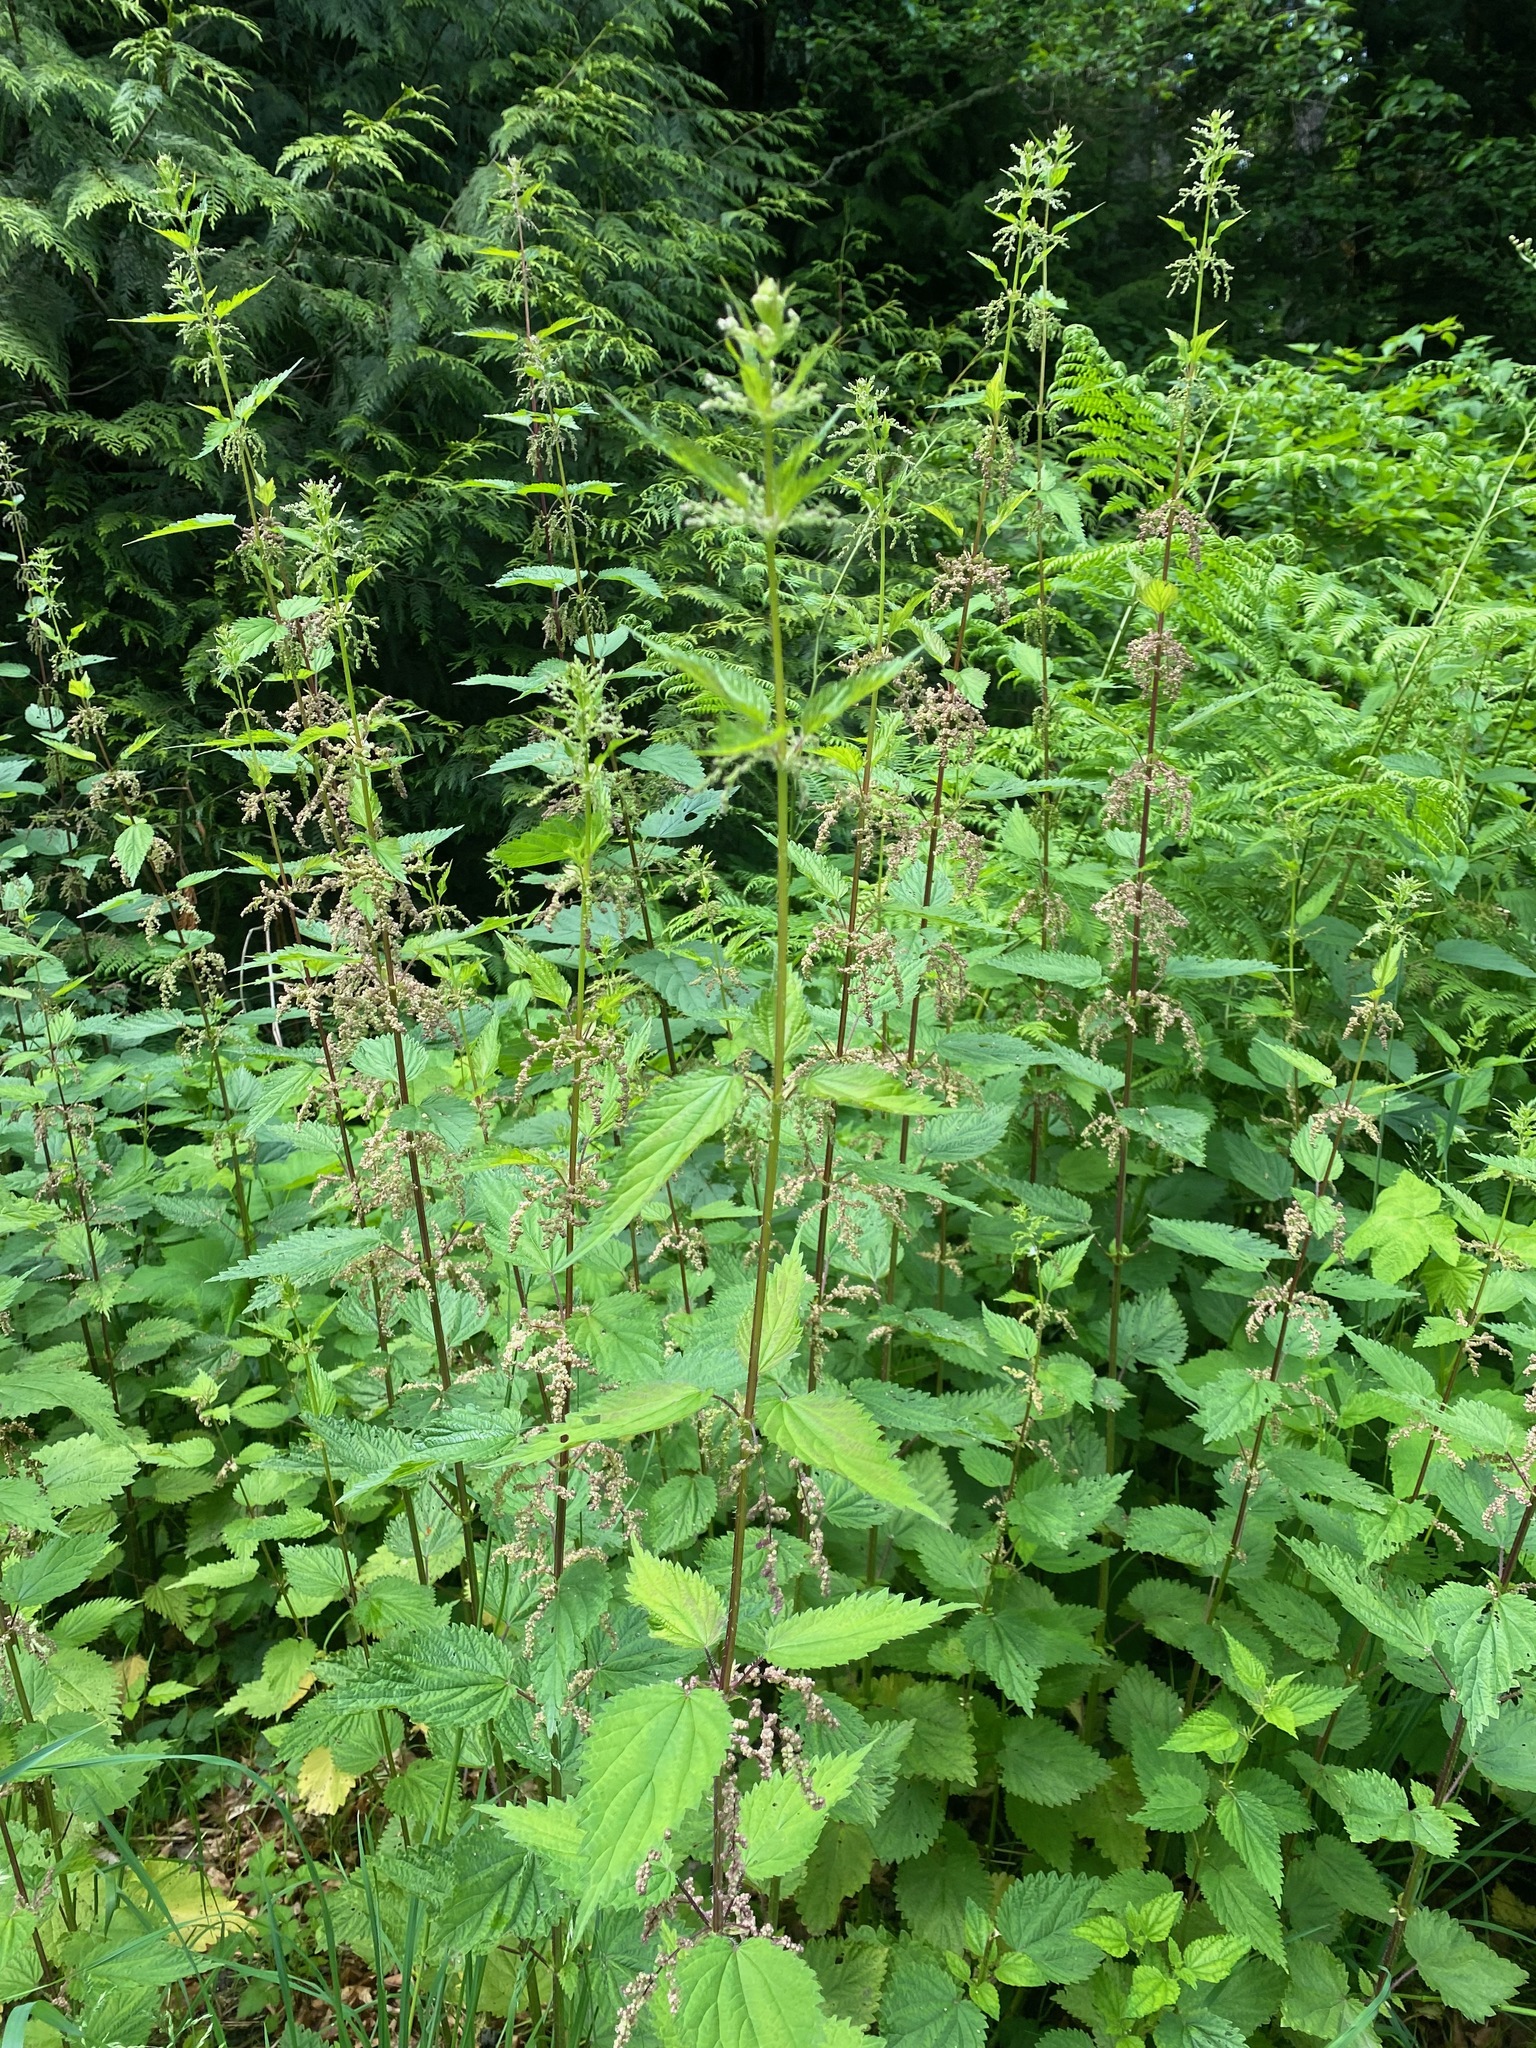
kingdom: Plantae
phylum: Tracheophyta
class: Magnoliopsida
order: Rosales
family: Urticaceae
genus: Urtica
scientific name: Urtica dioica
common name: Common nettle
